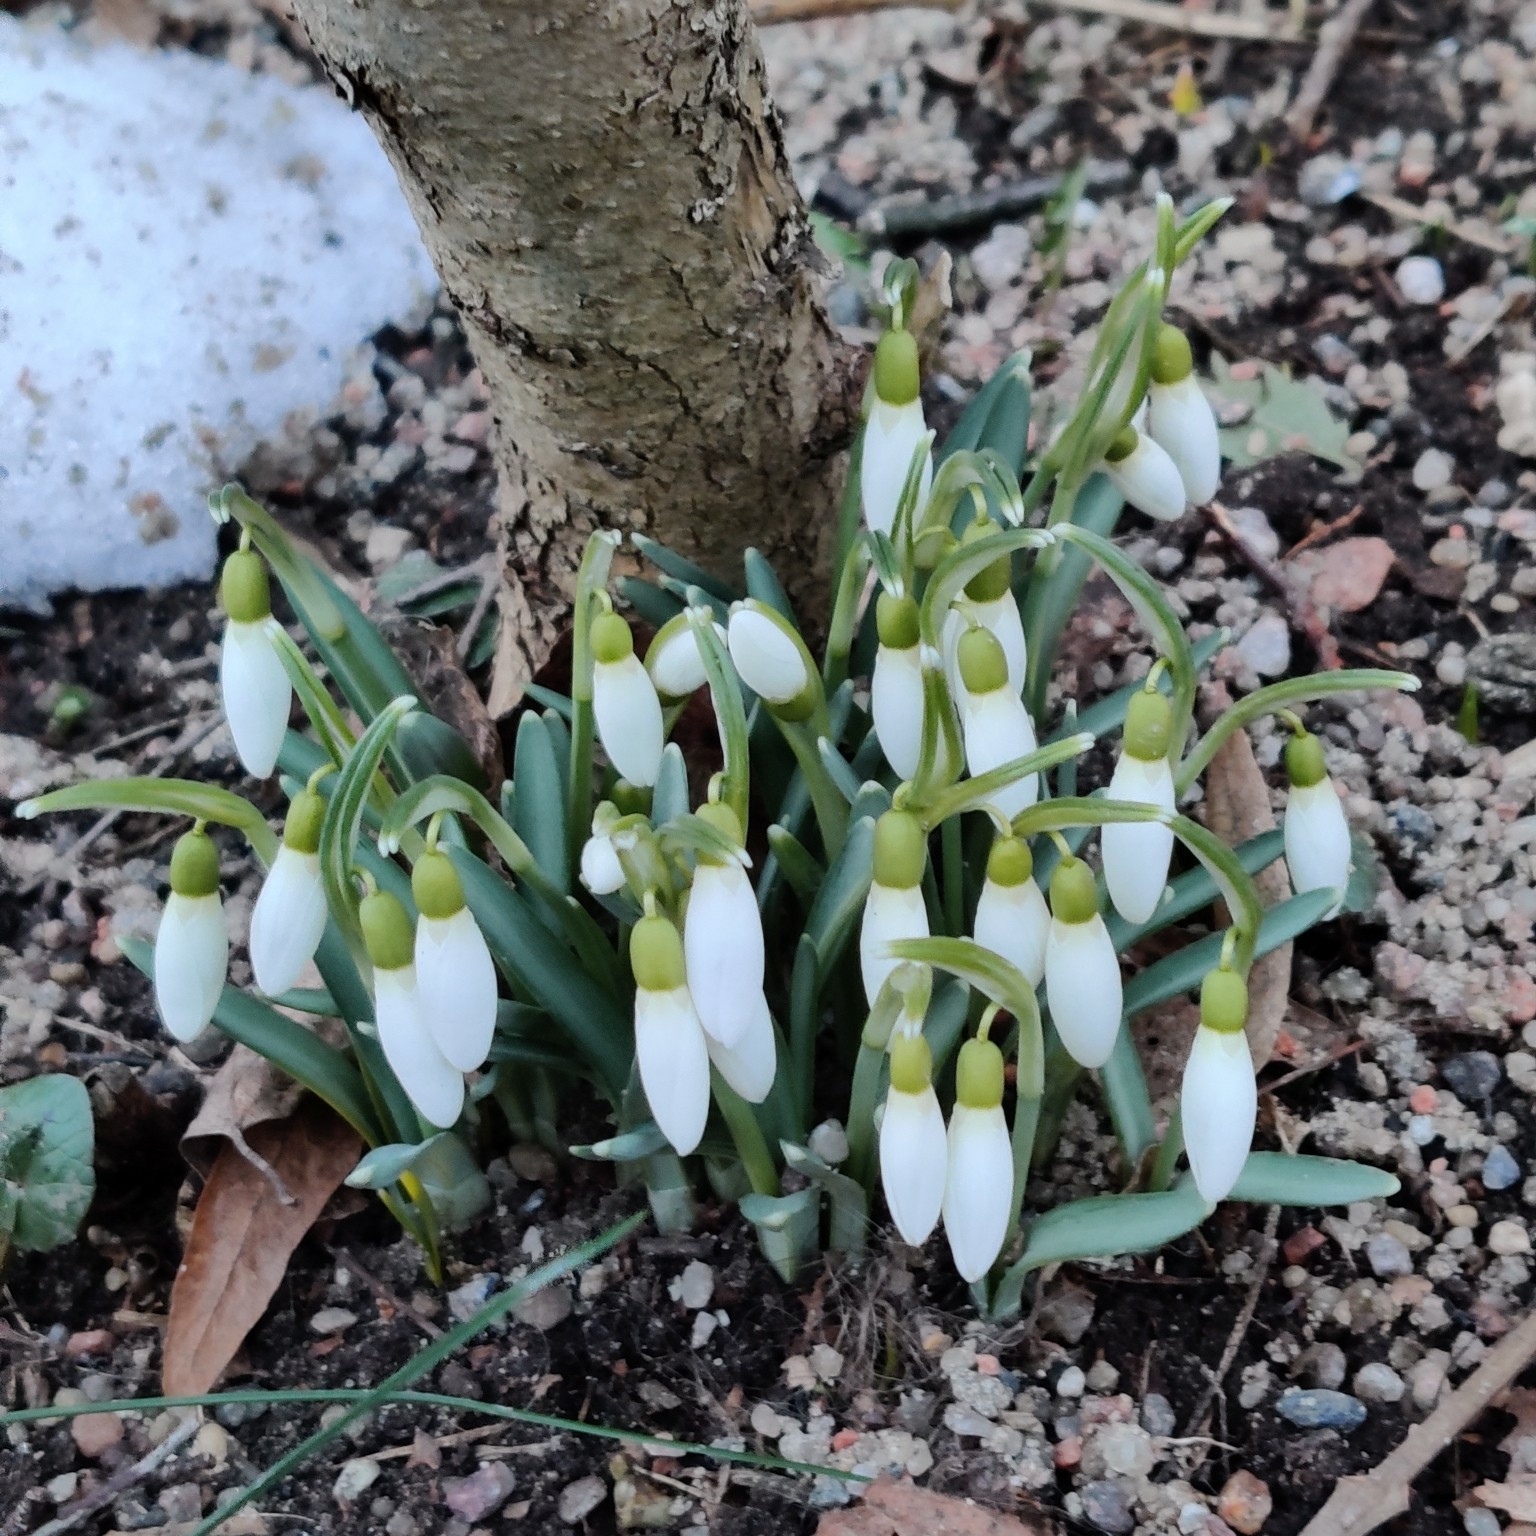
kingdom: Plantae
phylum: Tracheophyta
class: Liliopsida
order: Asparagales
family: Amaryllidaceae
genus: Galanthus
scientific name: Galanthus nivalis
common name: Snowdrop
